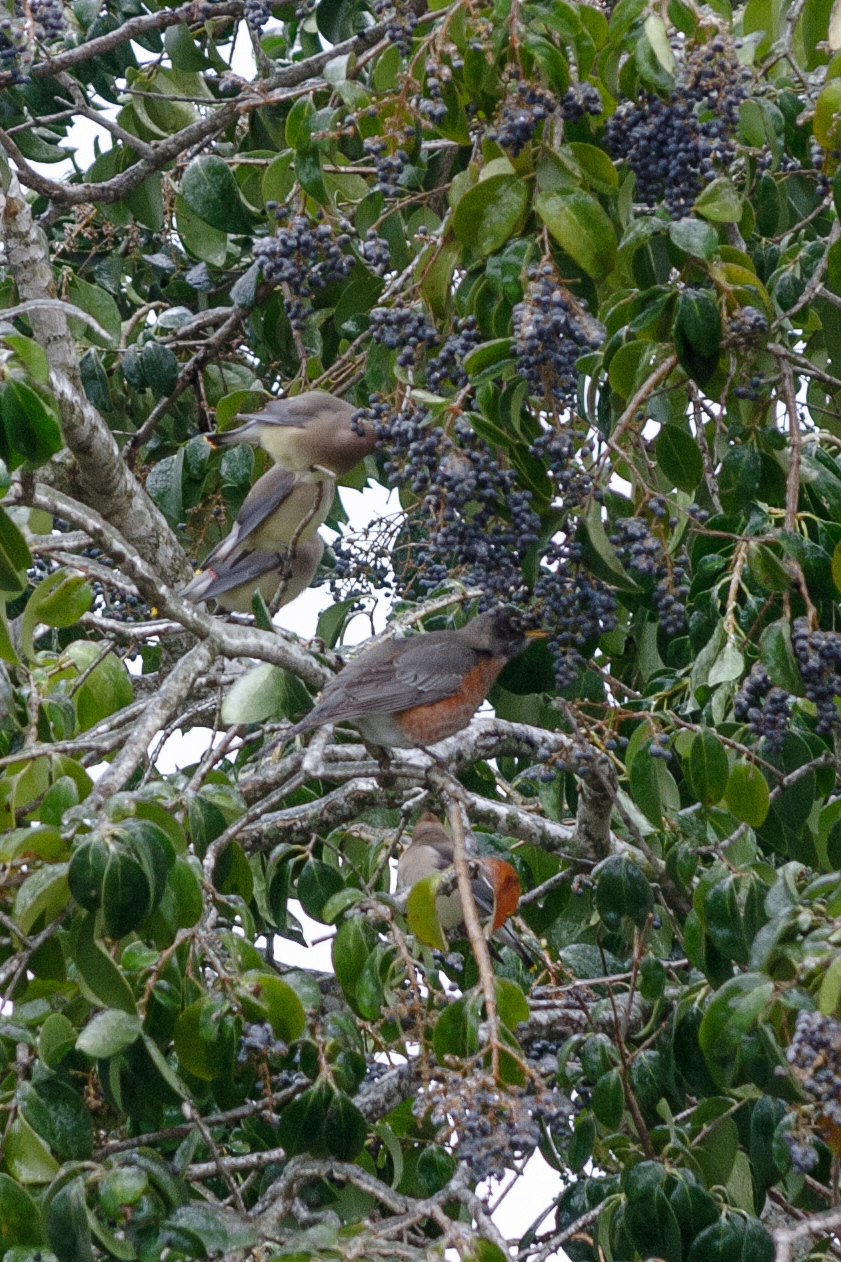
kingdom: Animalia
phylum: Chordata
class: Aves
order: Passeriformes
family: Turdidae
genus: Turdus
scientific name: Turdus migratorius
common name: American robin
